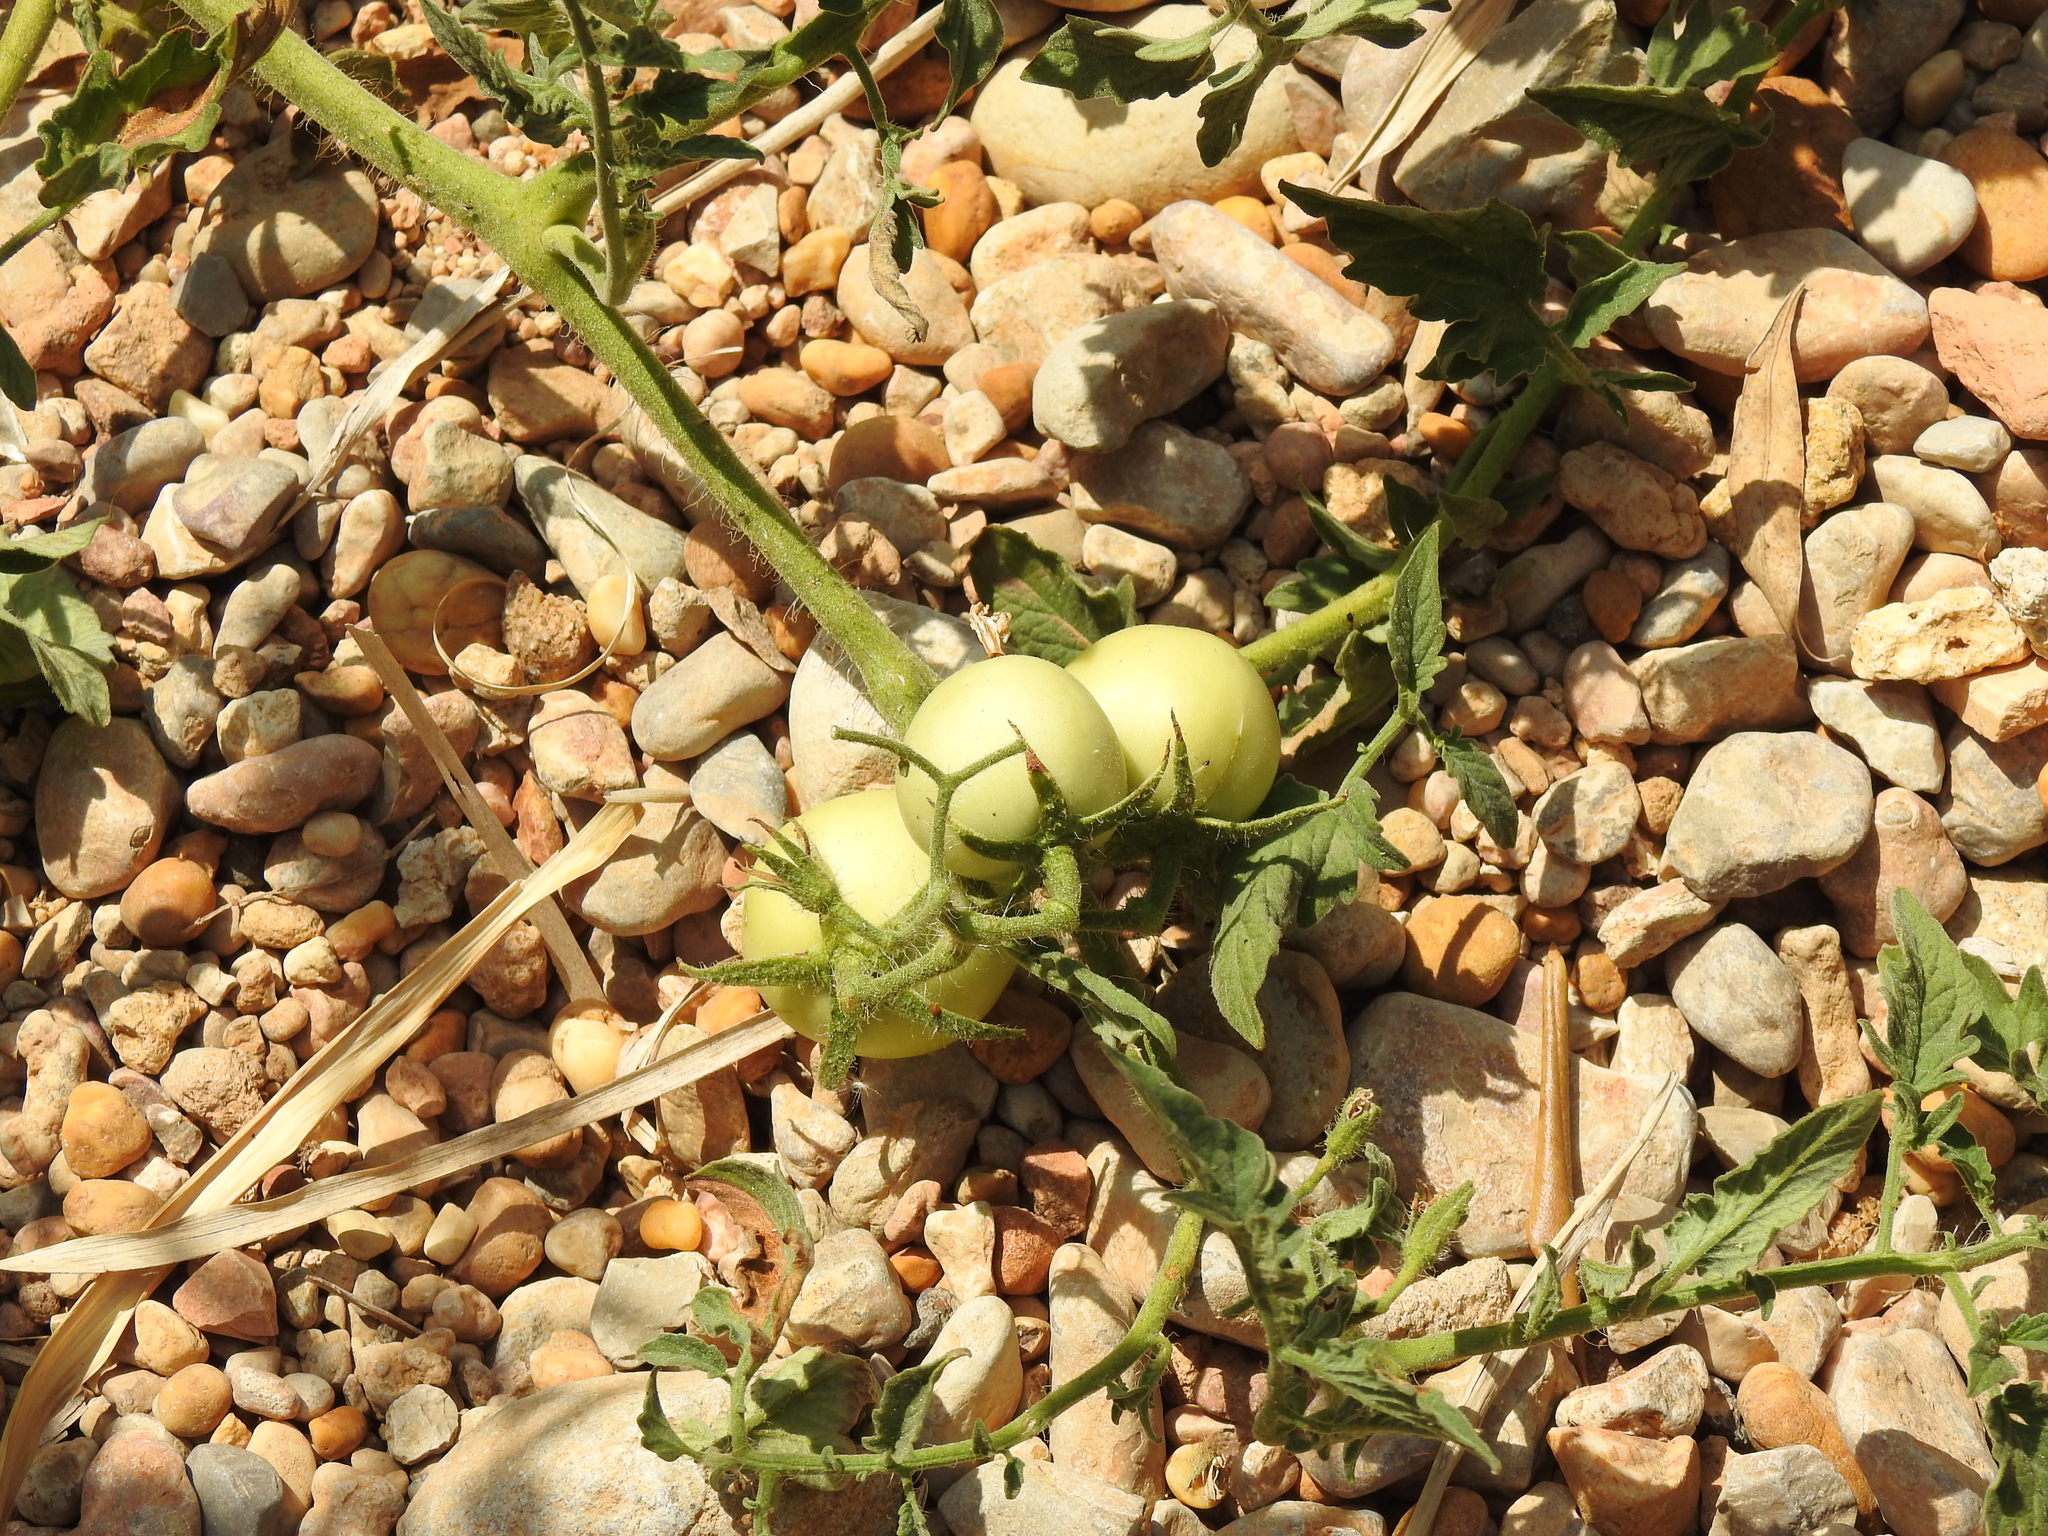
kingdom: Plantae
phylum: Tracheophyta
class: Magnoliopsida
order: Solanales
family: Solanaceae
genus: Solanum
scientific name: Solanum lycopersicum
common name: Garden tomato
